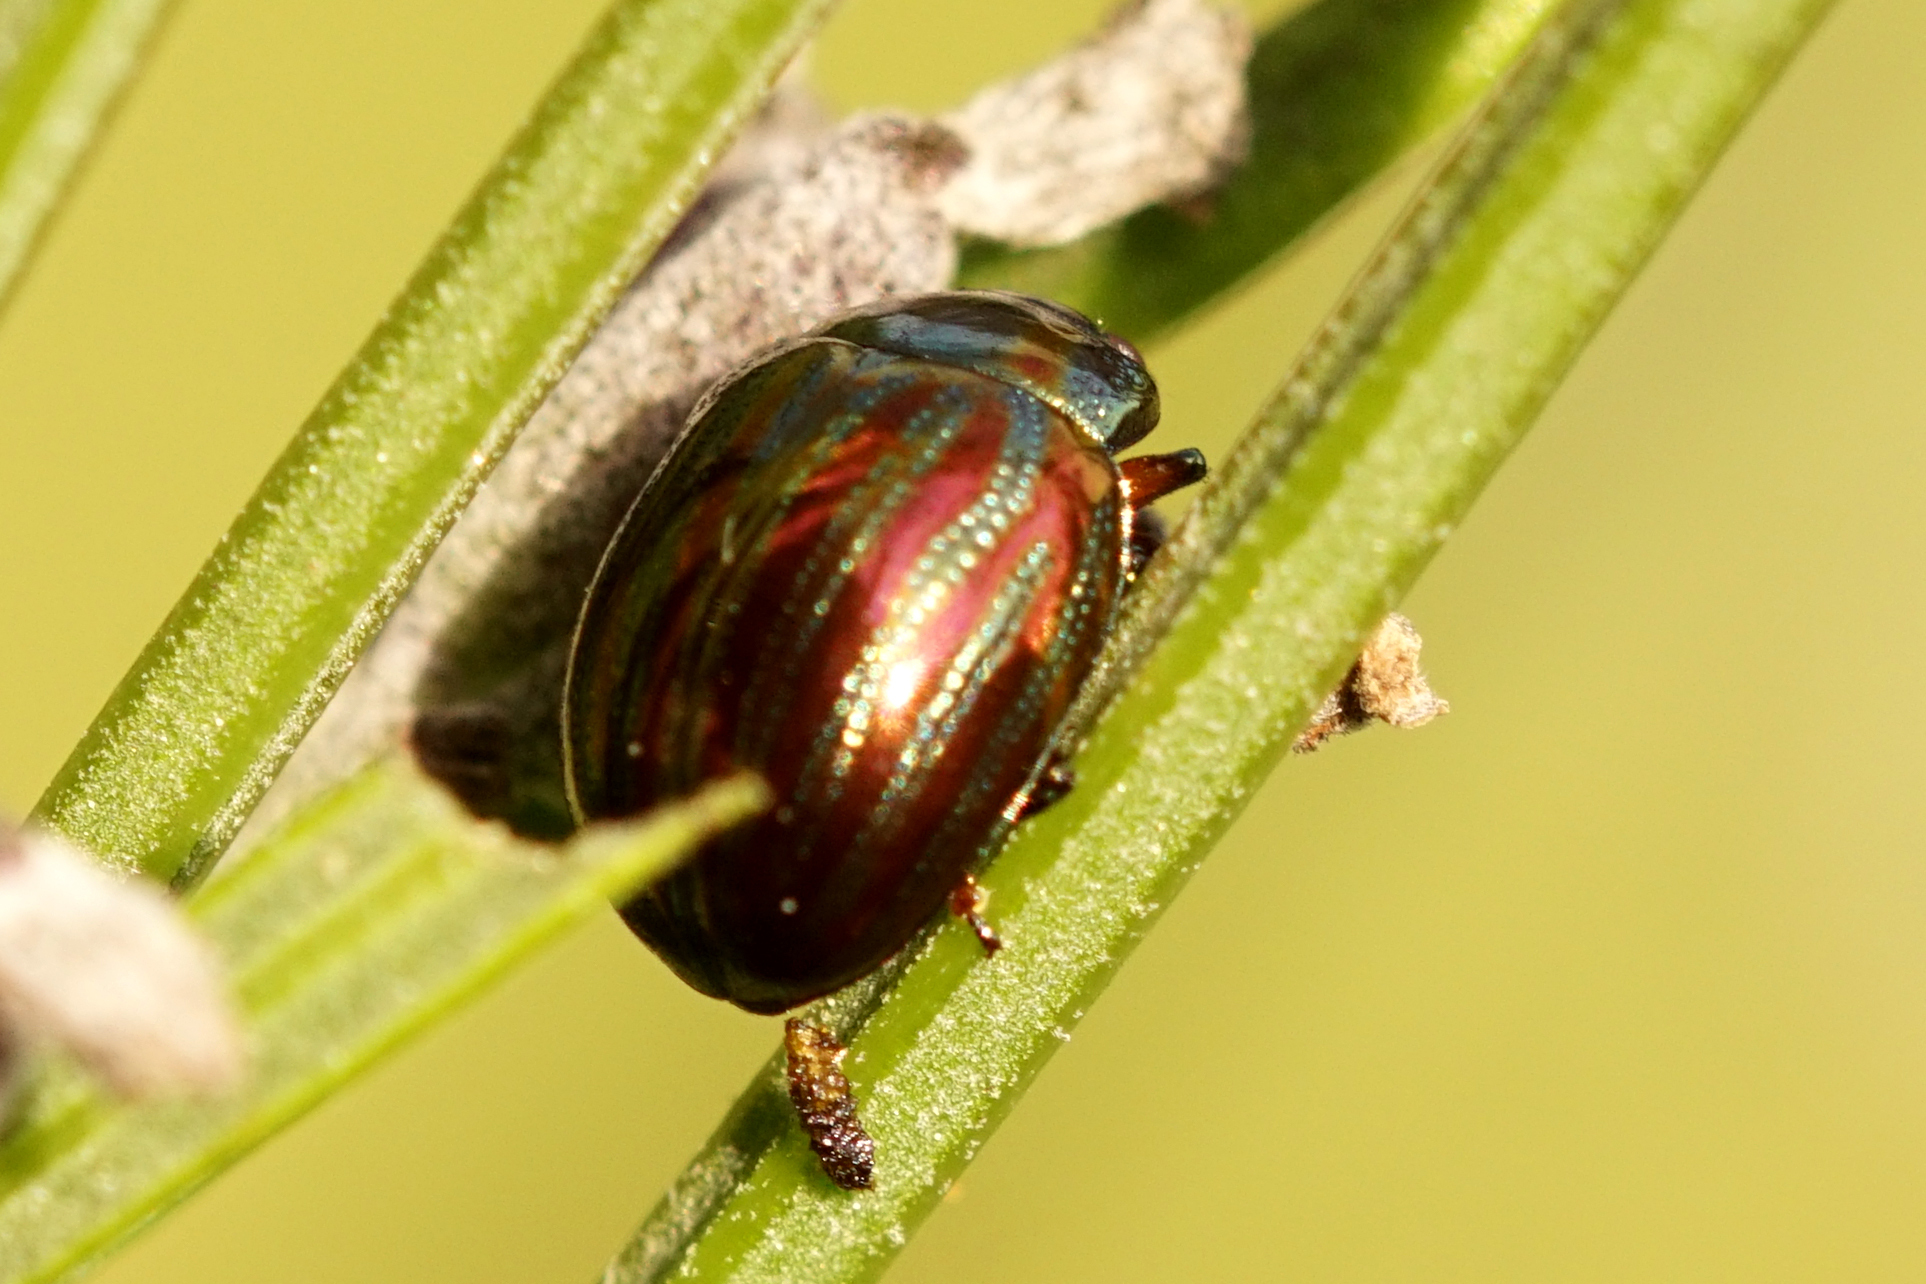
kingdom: Animalia
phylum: Arthropoda
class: Insecta
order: Coleoptera
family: Chrysomelidae
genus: Chrysolina
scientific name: Chrysolina americana
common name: Rosemary beetle
